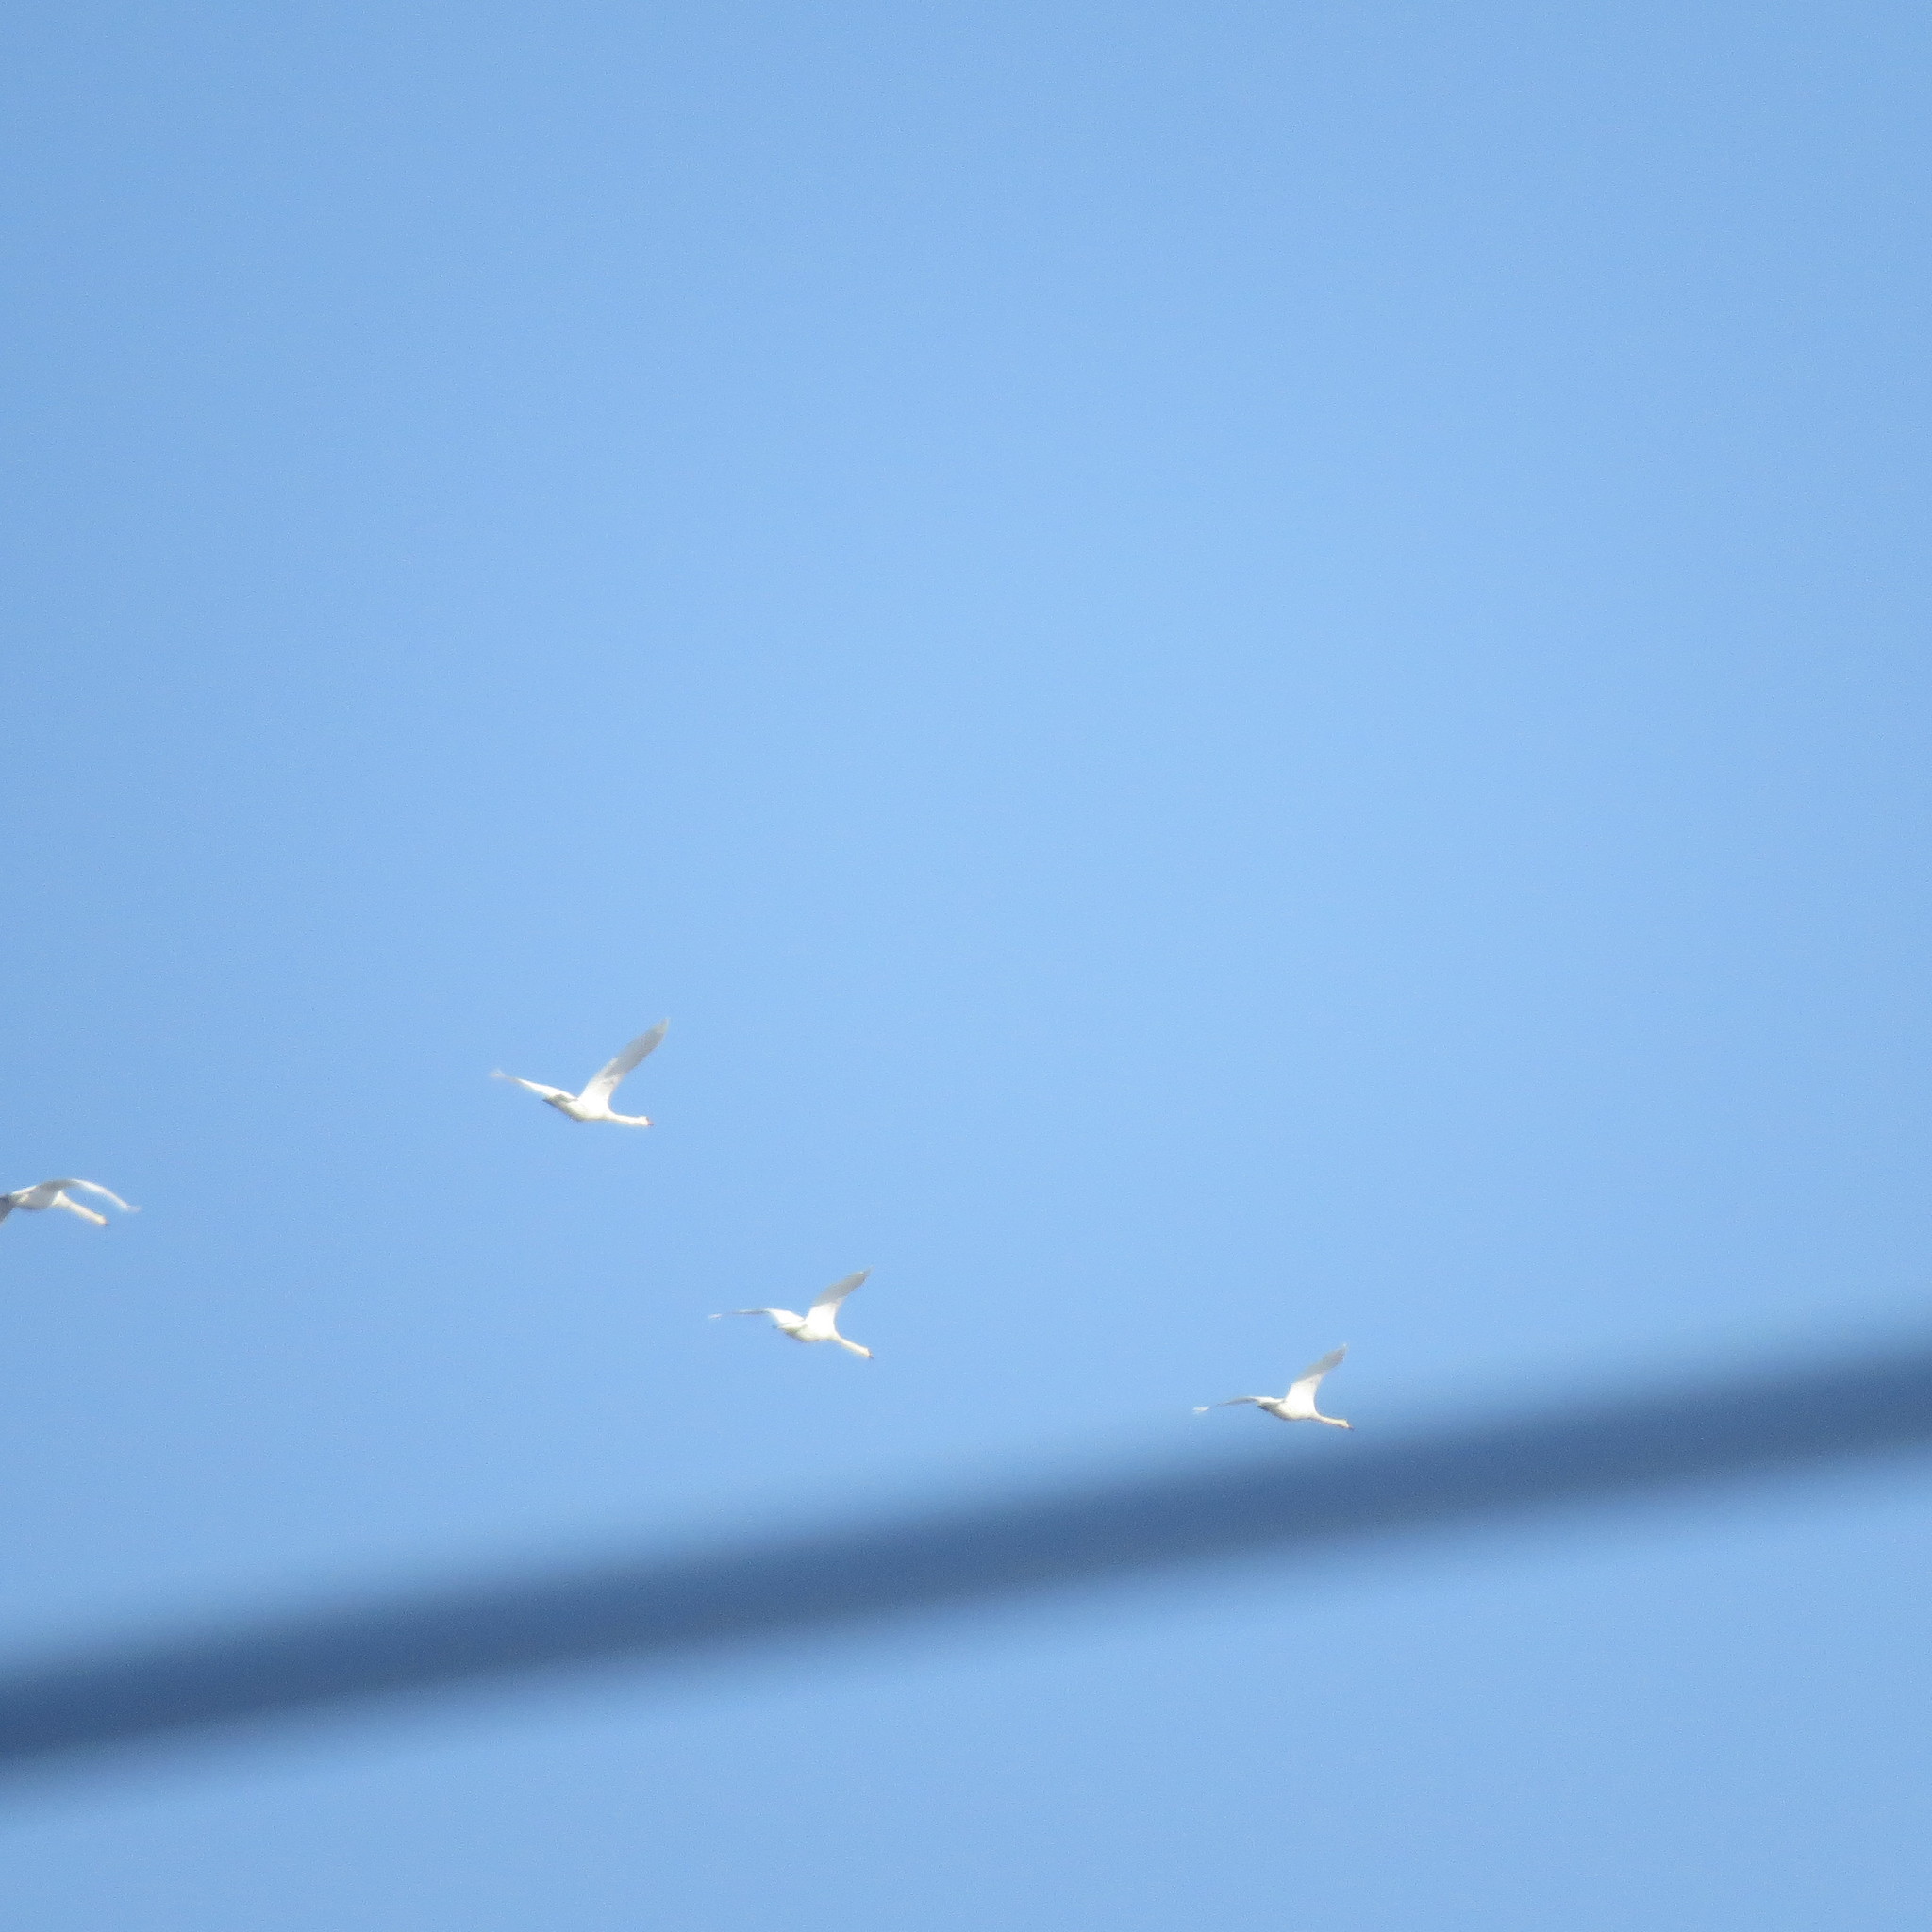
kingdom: Animalia
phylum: Chordata
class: Aves
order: Anseriformes
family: Anatidae
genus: Cygnus
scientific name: Cygnus olor
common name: Mute swan
